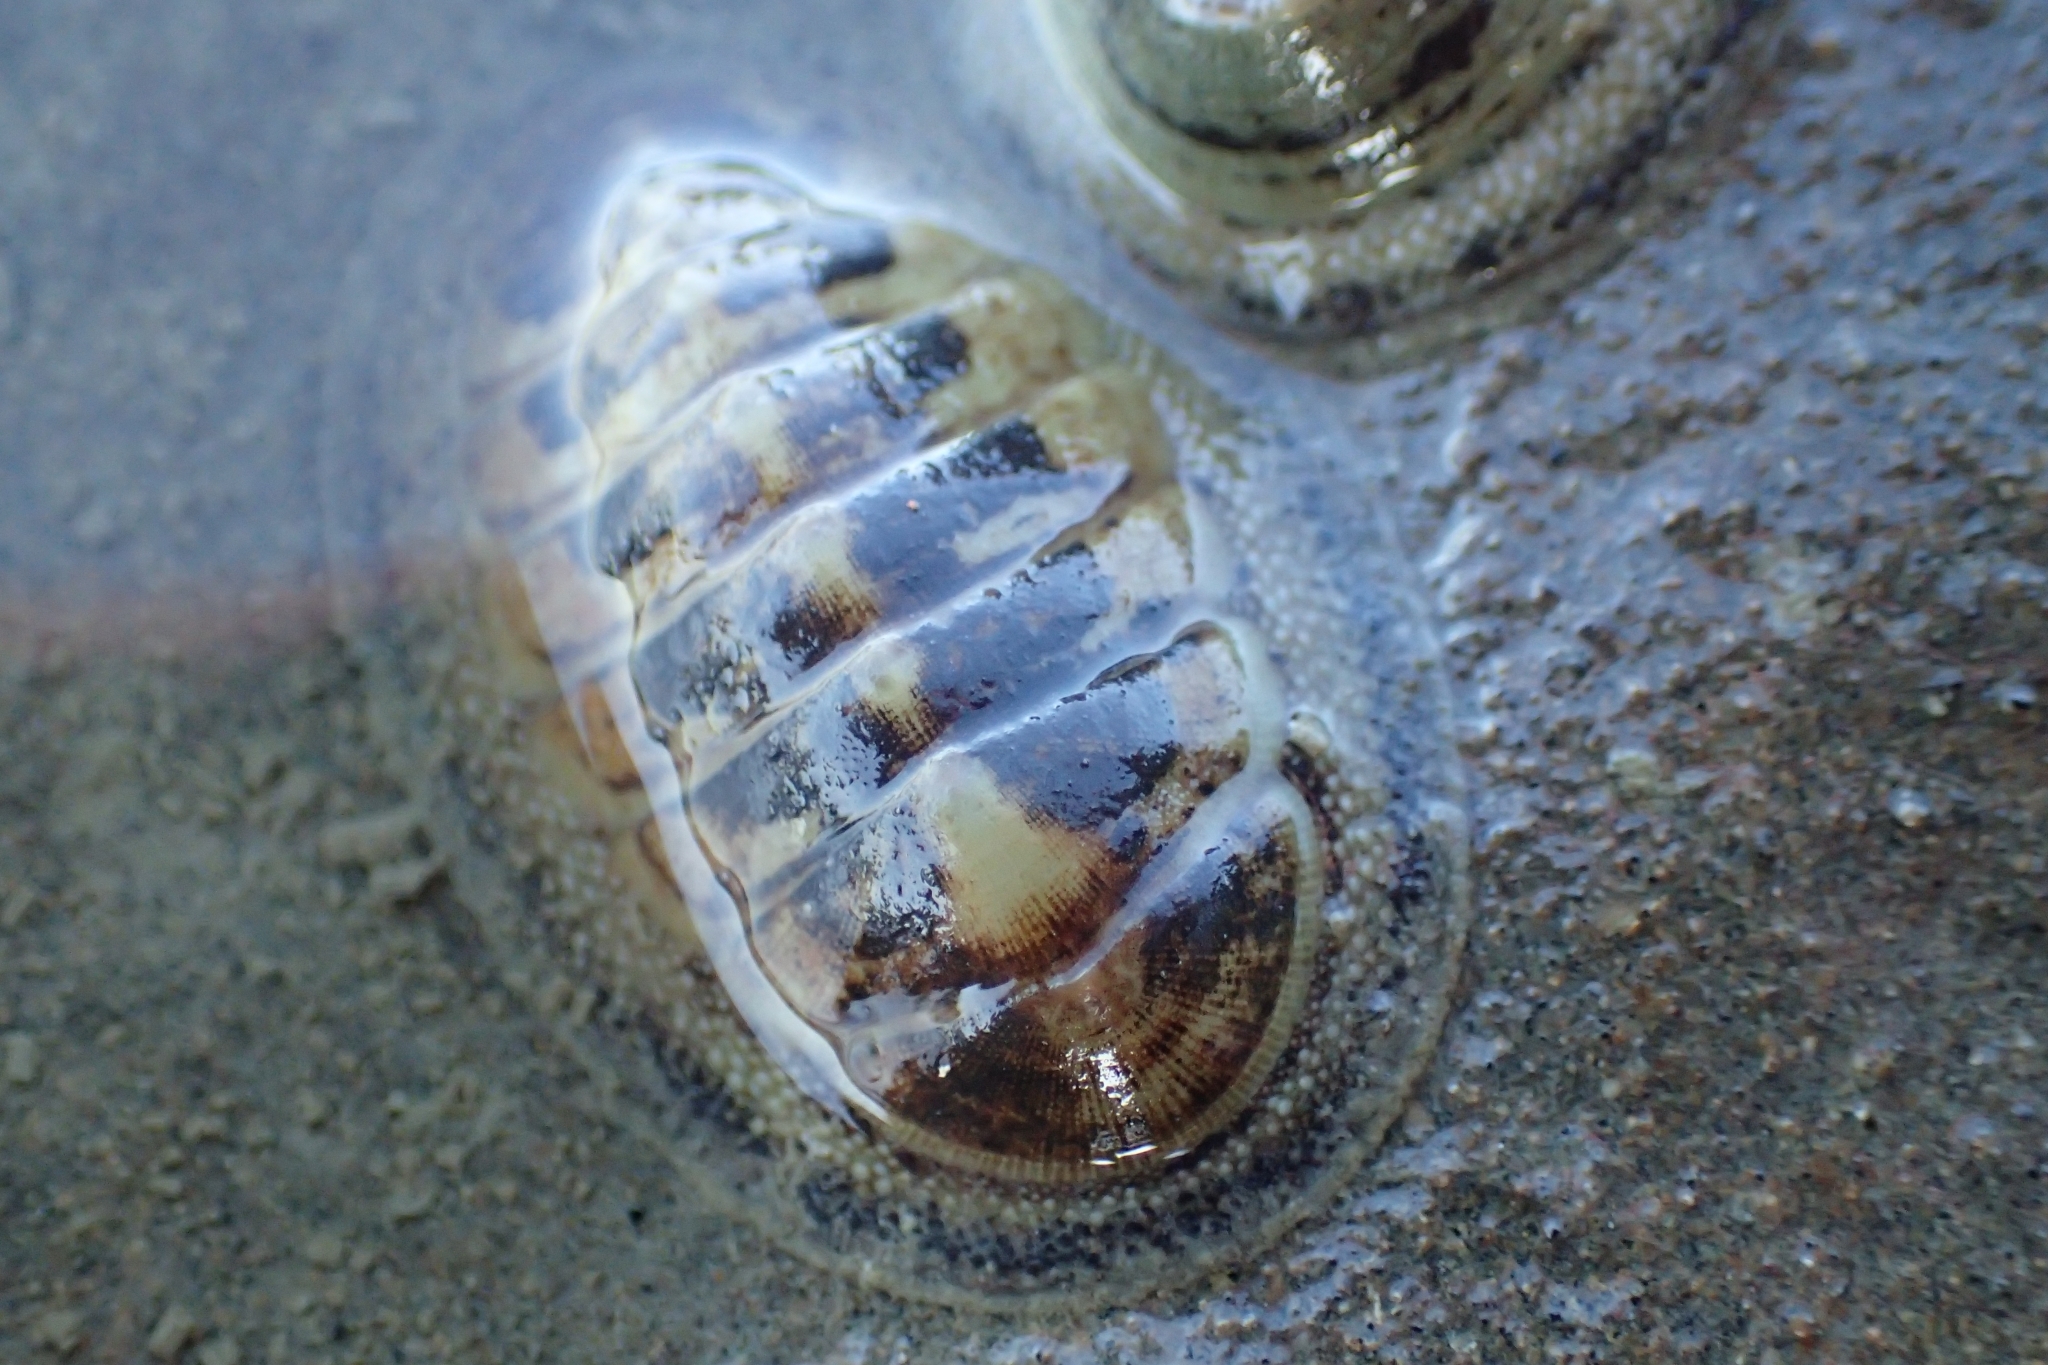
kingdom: Animalia
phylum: Mollusca
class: Polyplacophora
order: Chitonida
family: Chitonidae
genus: Chiton
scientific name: Chiton glaucus
